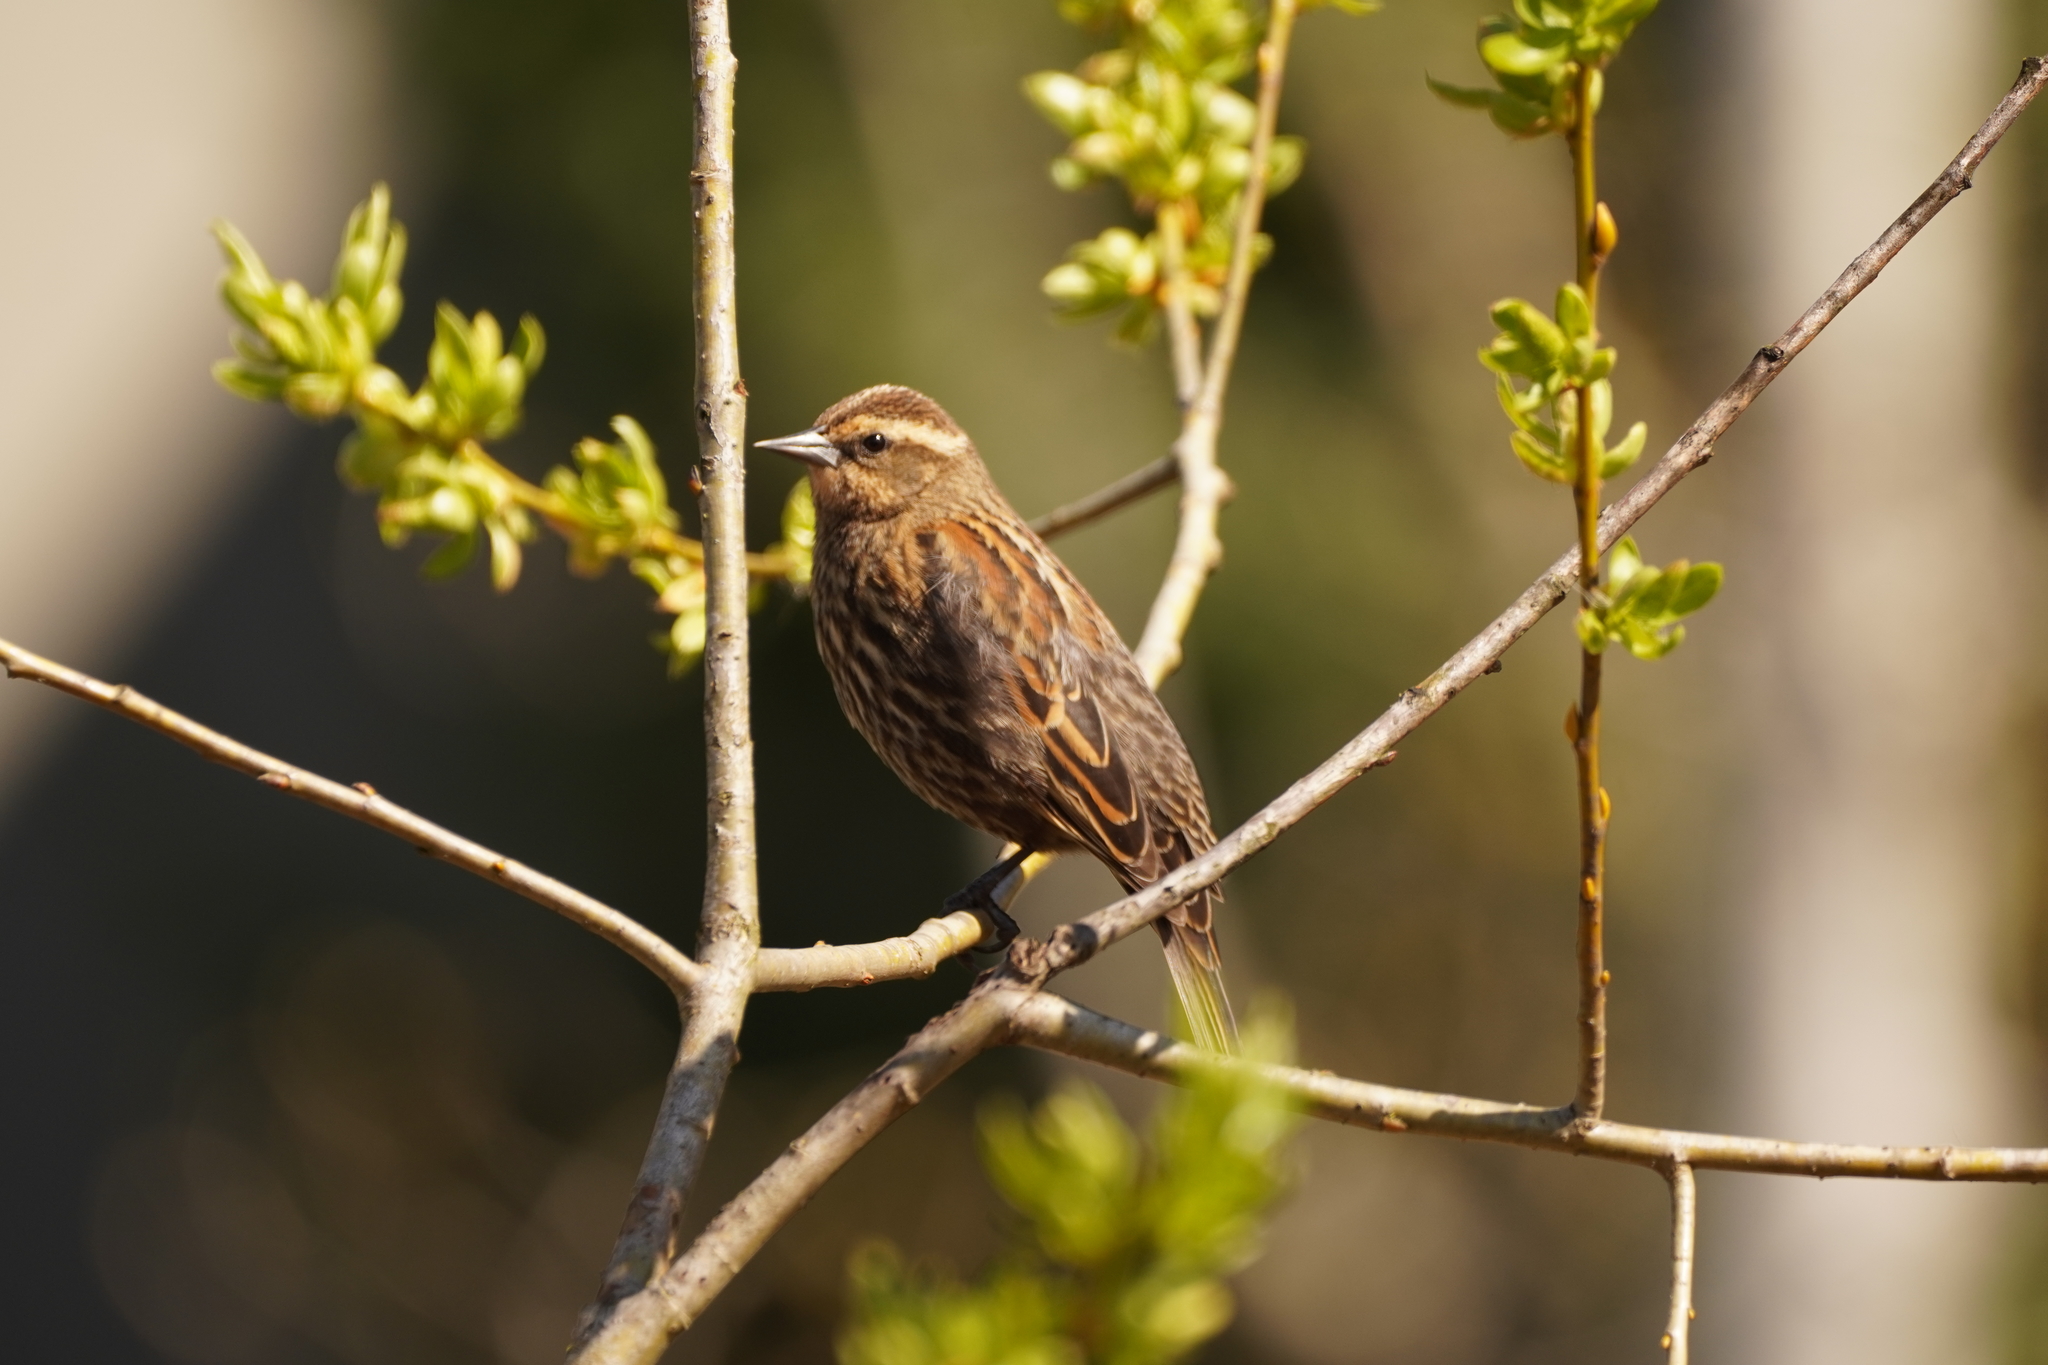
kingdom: Animalia
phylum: Chordata
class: Aves
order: Passeriformes
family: Icteridae
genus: Agelaius
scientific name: Agelaius phoeniceus
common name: Red-winged blackbird
